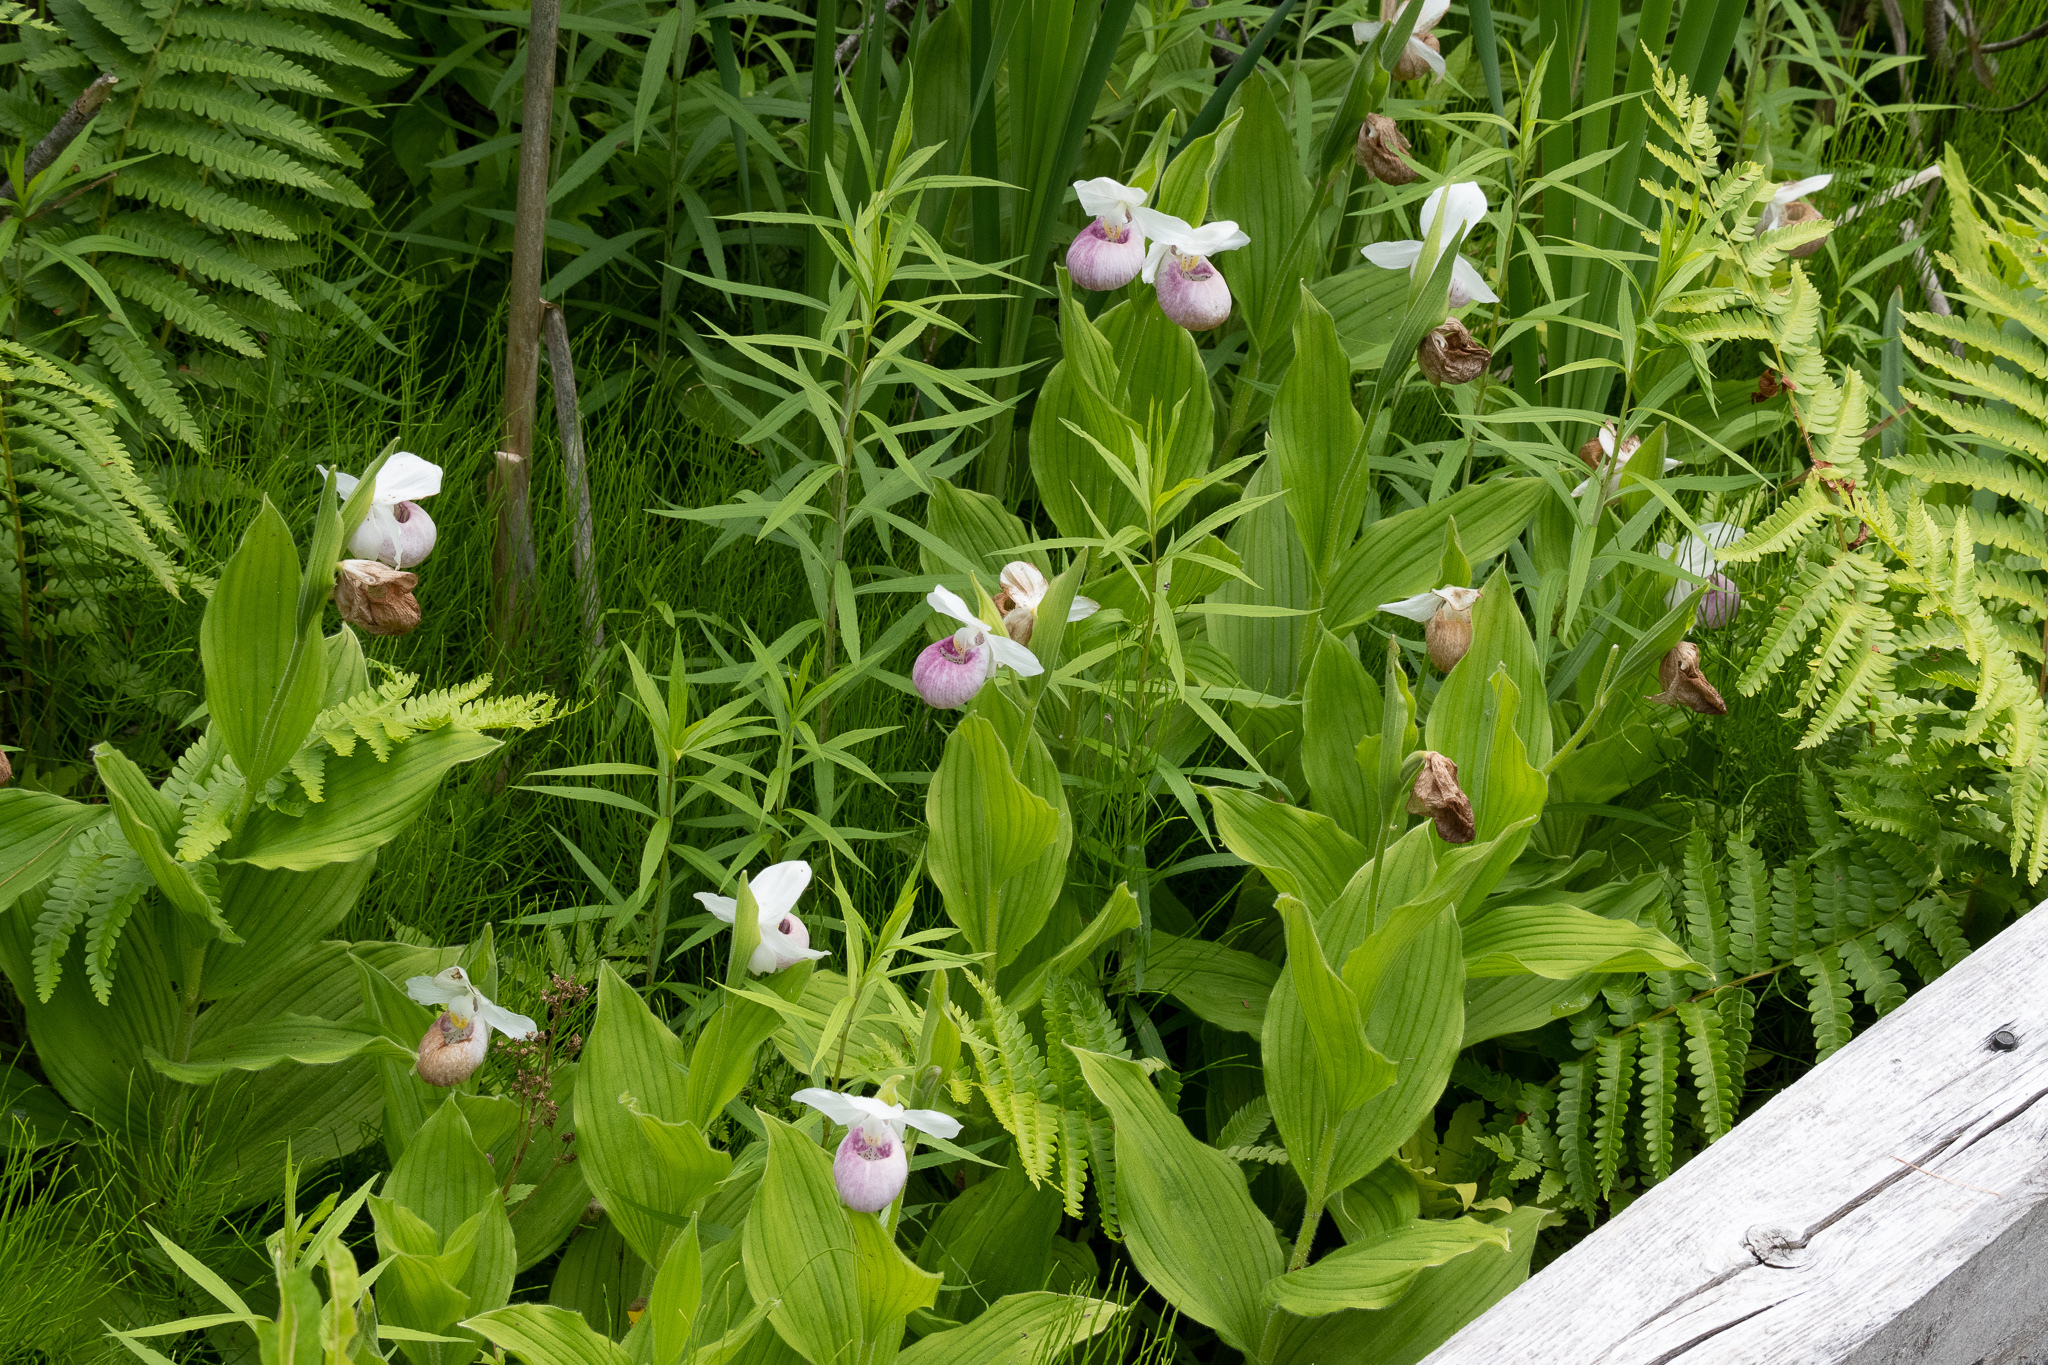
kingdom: Plantae
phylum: Tracheophyta
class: Liliopsida
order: Asparagales
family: Orchidaceae
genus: Cypripedium
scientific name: Cypripedium reginae
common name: Queen lady's-slipper
